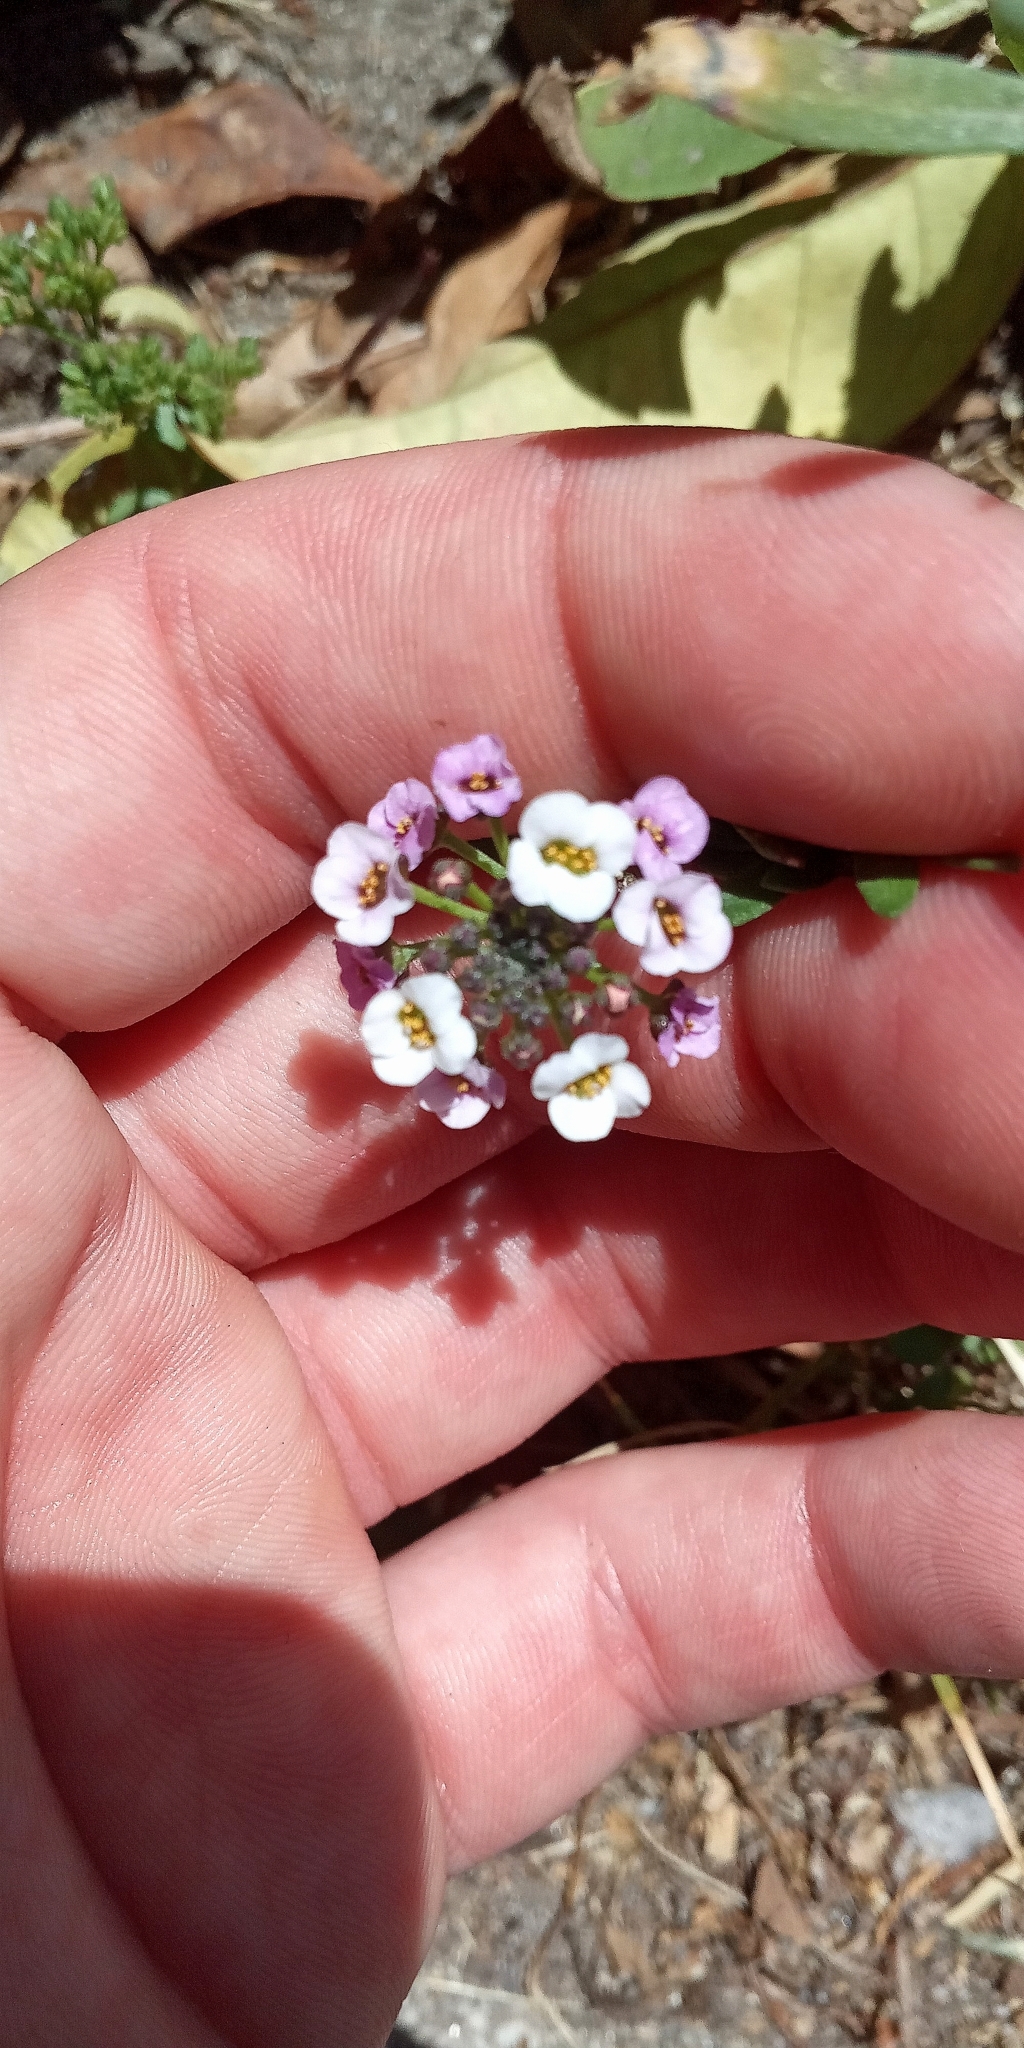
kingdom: Plantae
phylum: Tracheophyta
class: Magnoliopsida
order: Brassicales
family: Brassicaceae
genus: Lobularia
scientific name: Lobularia maritima
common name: Sweet alison
